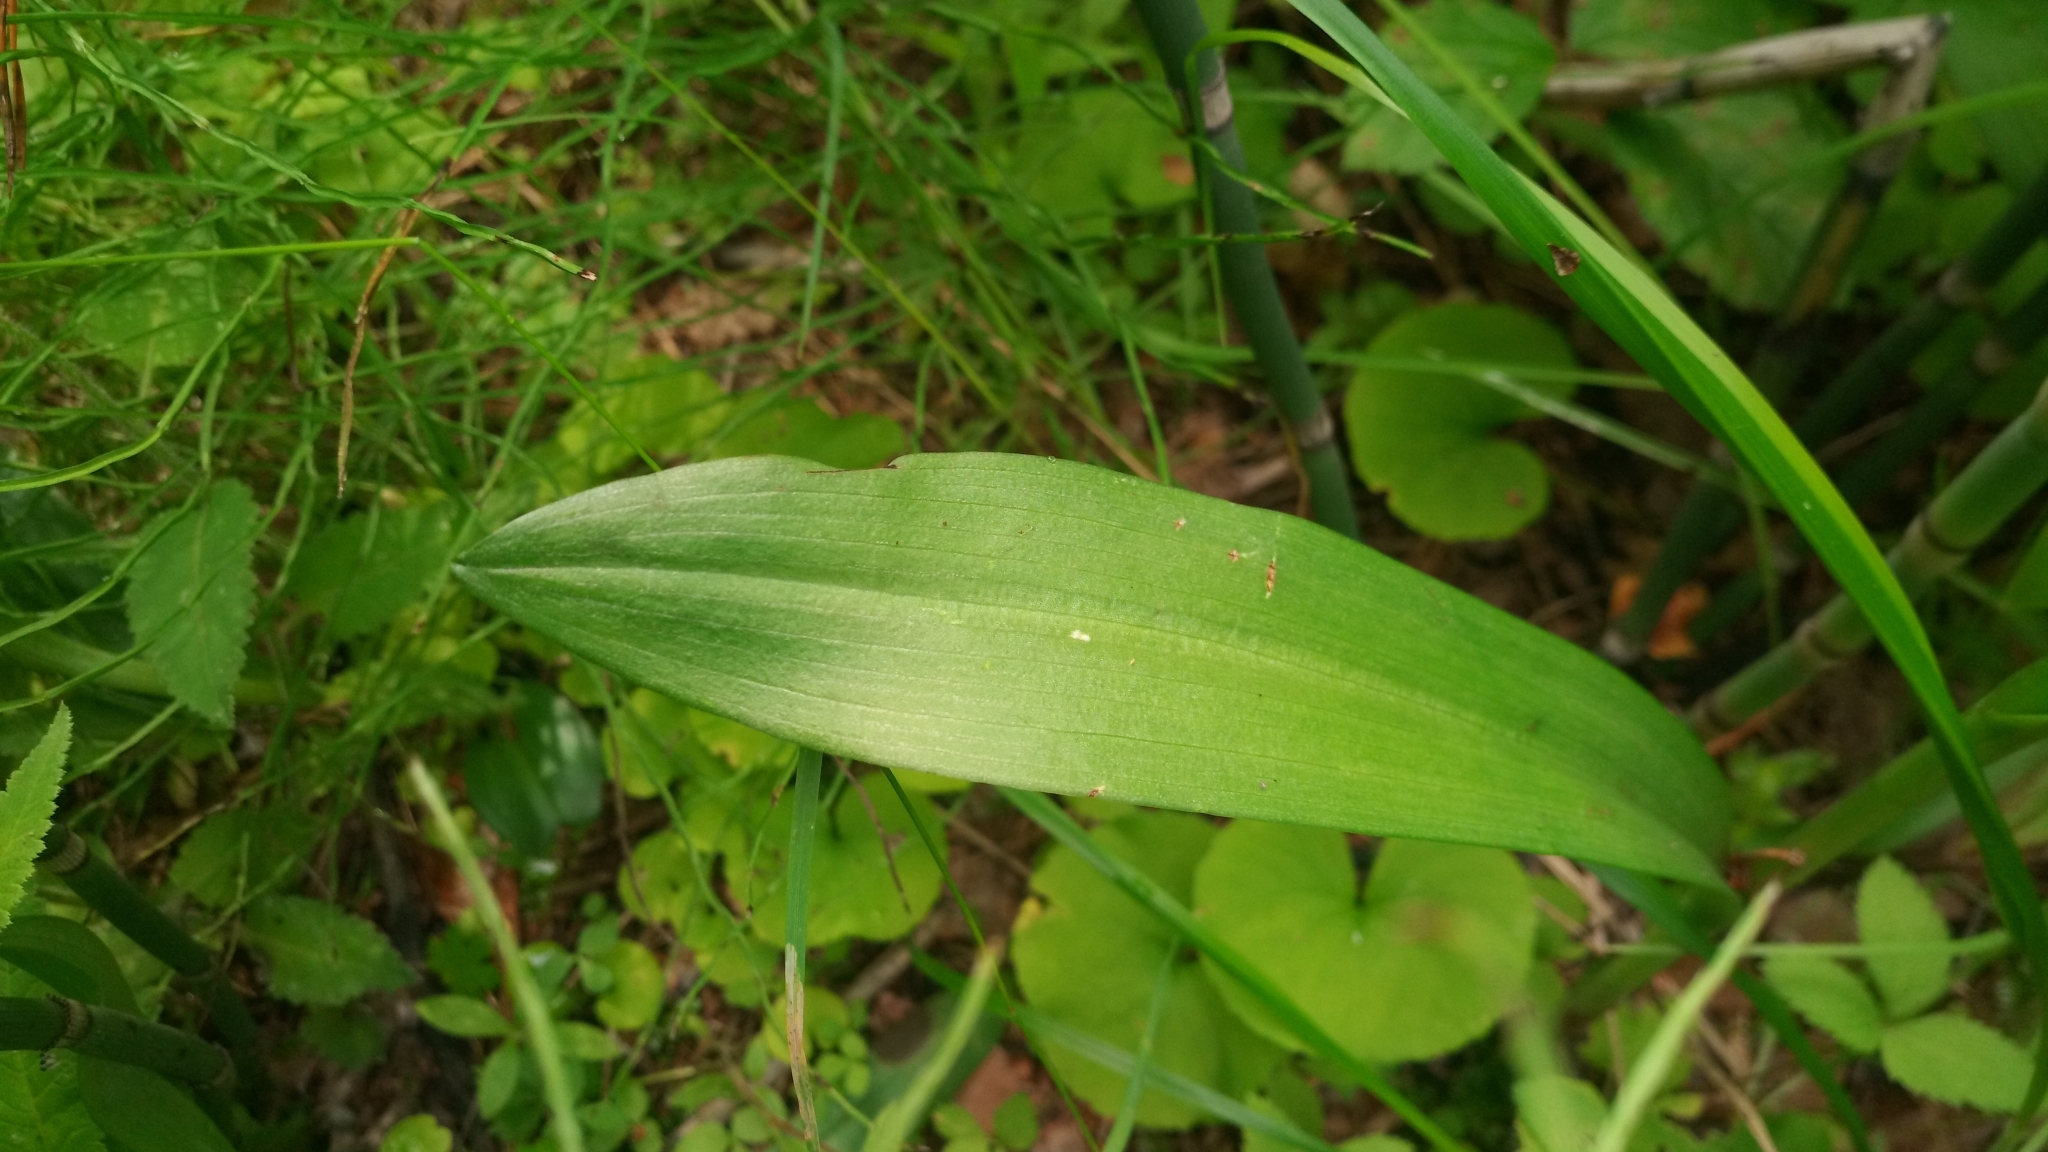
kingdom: Plantae
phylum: Tracheophyta
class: Liliopsida
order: Asparagales
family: Orchidaceae
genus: Dactylorhiza
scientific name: Dactylorhiza sibirica
